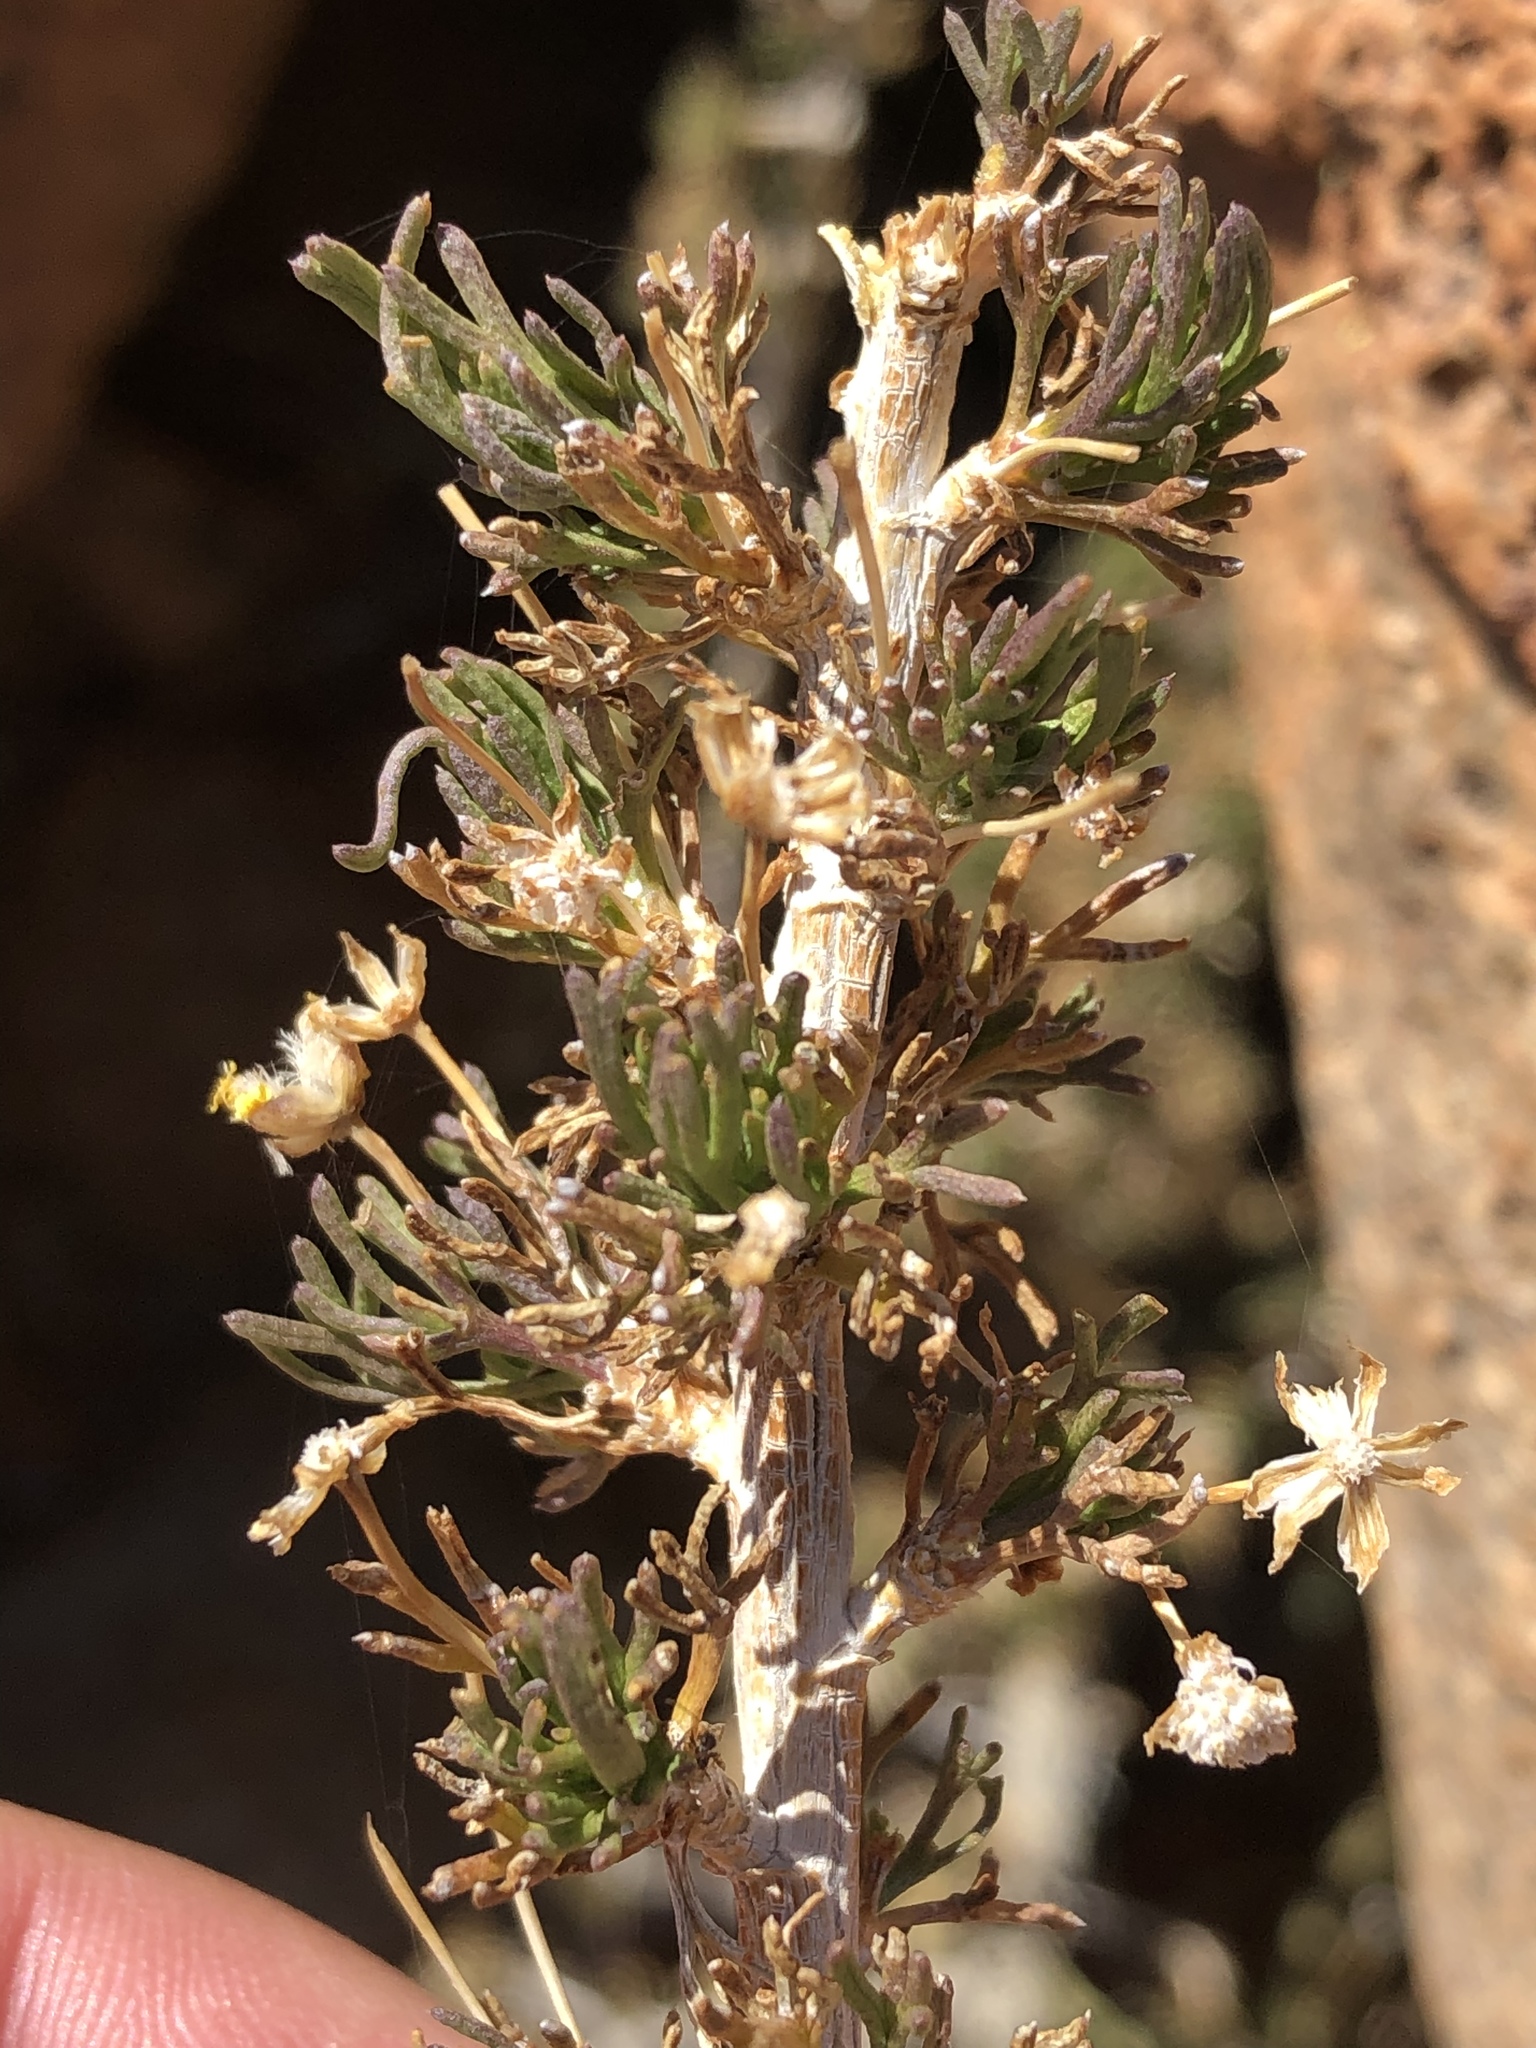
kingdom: Plantae
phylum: Tracheophyta
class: Magnoliopsida
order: Asterales
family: Asteraceae
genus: Euryops
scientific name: Euryops subcarnosus
